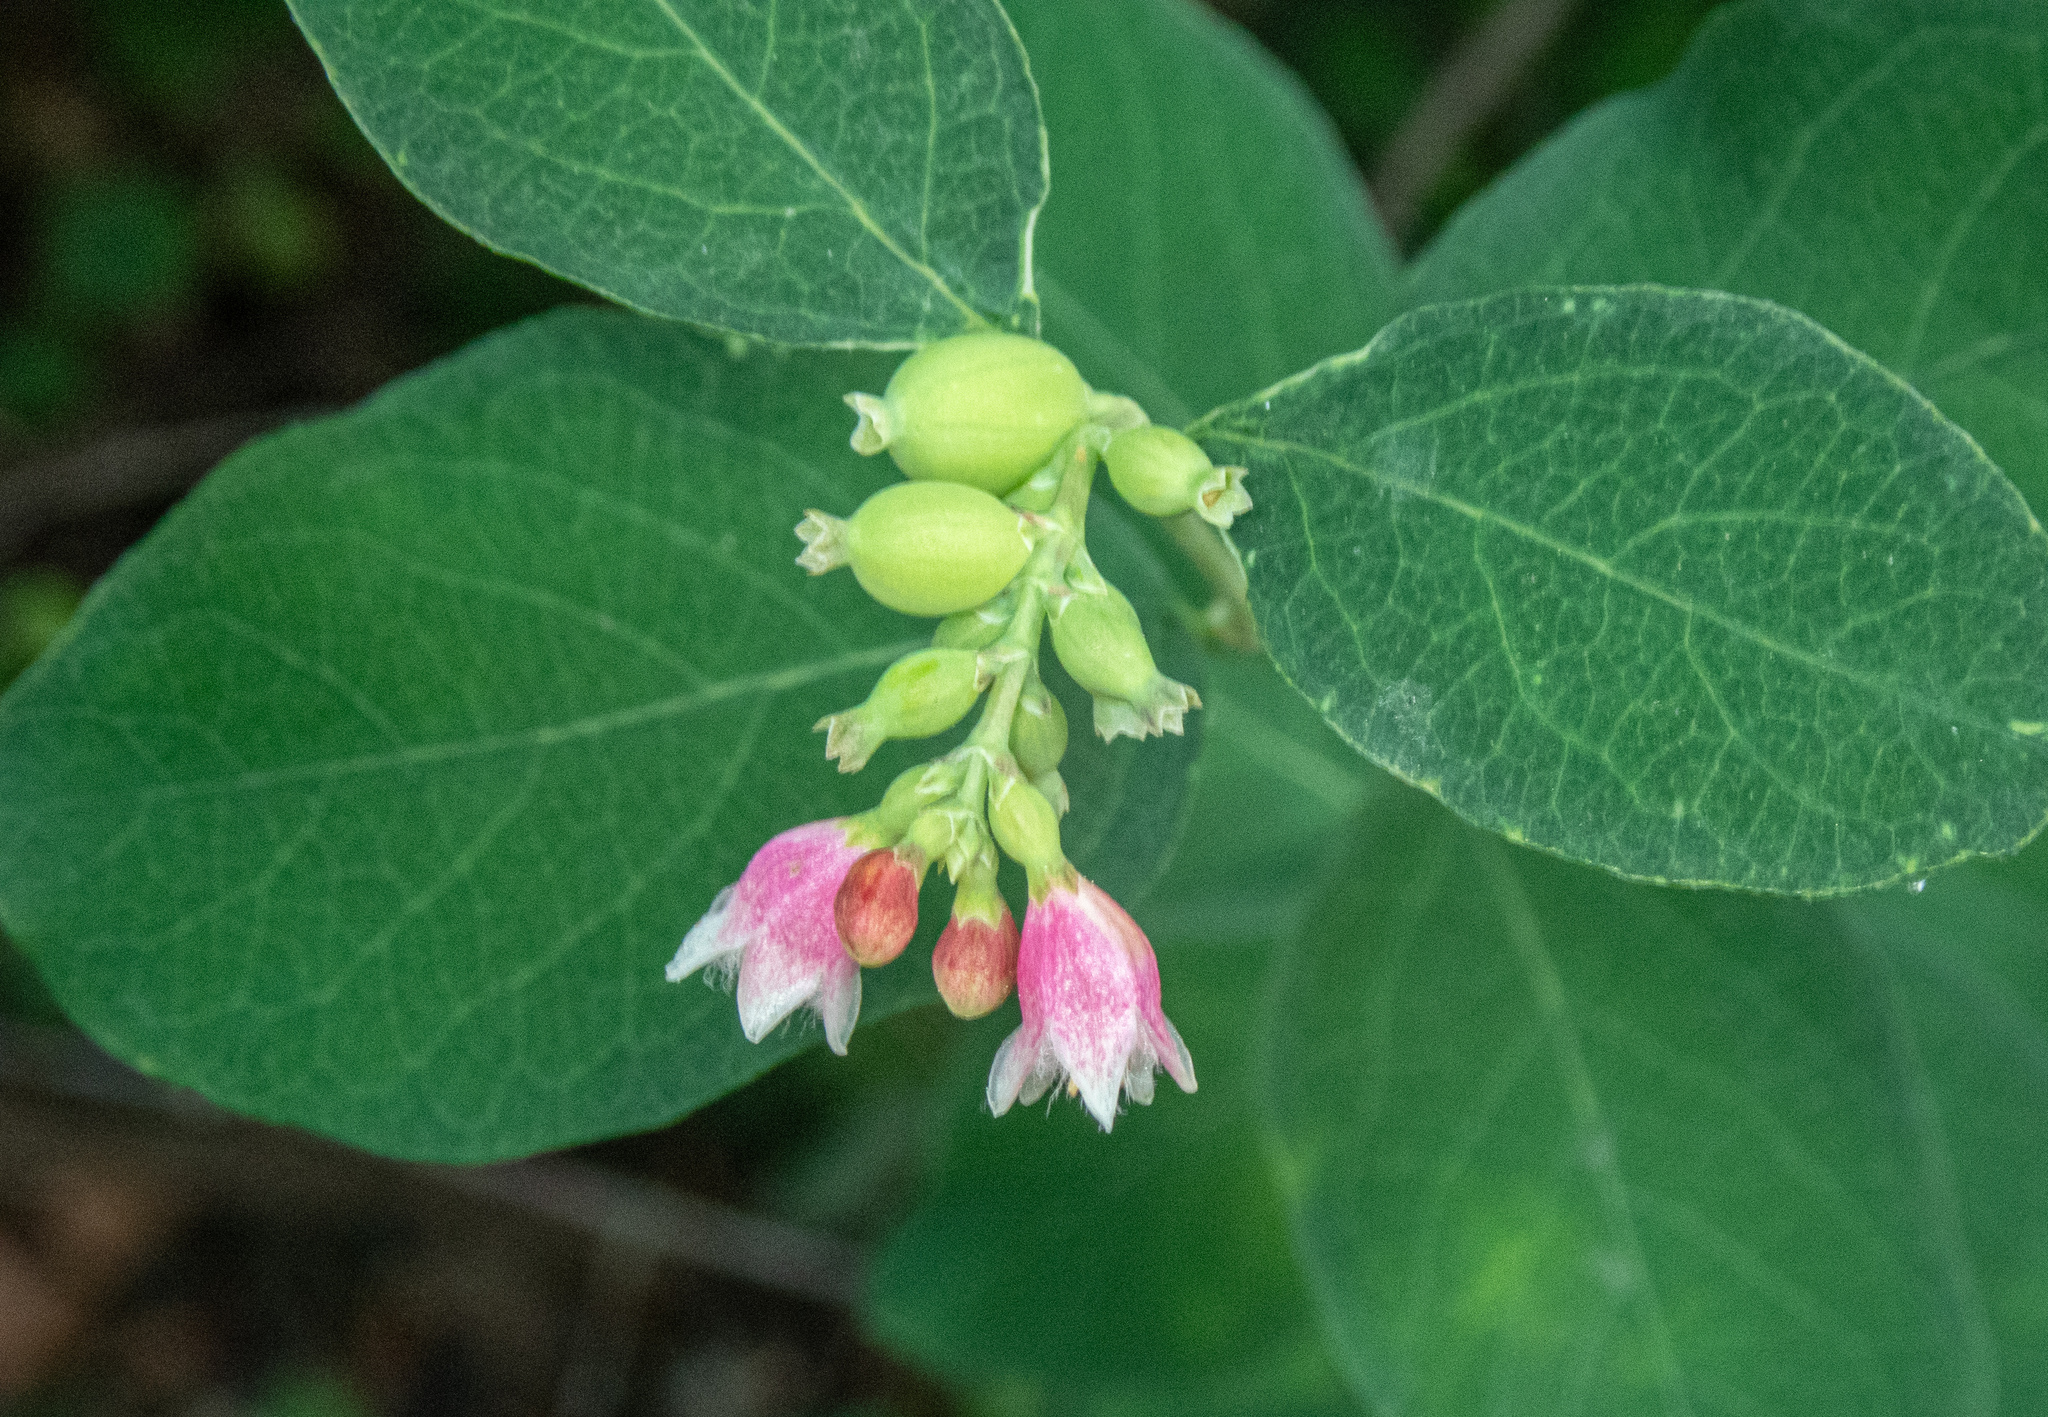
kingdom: Plantae
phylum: Tracheophyta
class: Magnoliopsida
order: Dipsacales
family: Caprifoliaceae
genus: Symphoricarpos
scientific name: Symphoricarpos albus
